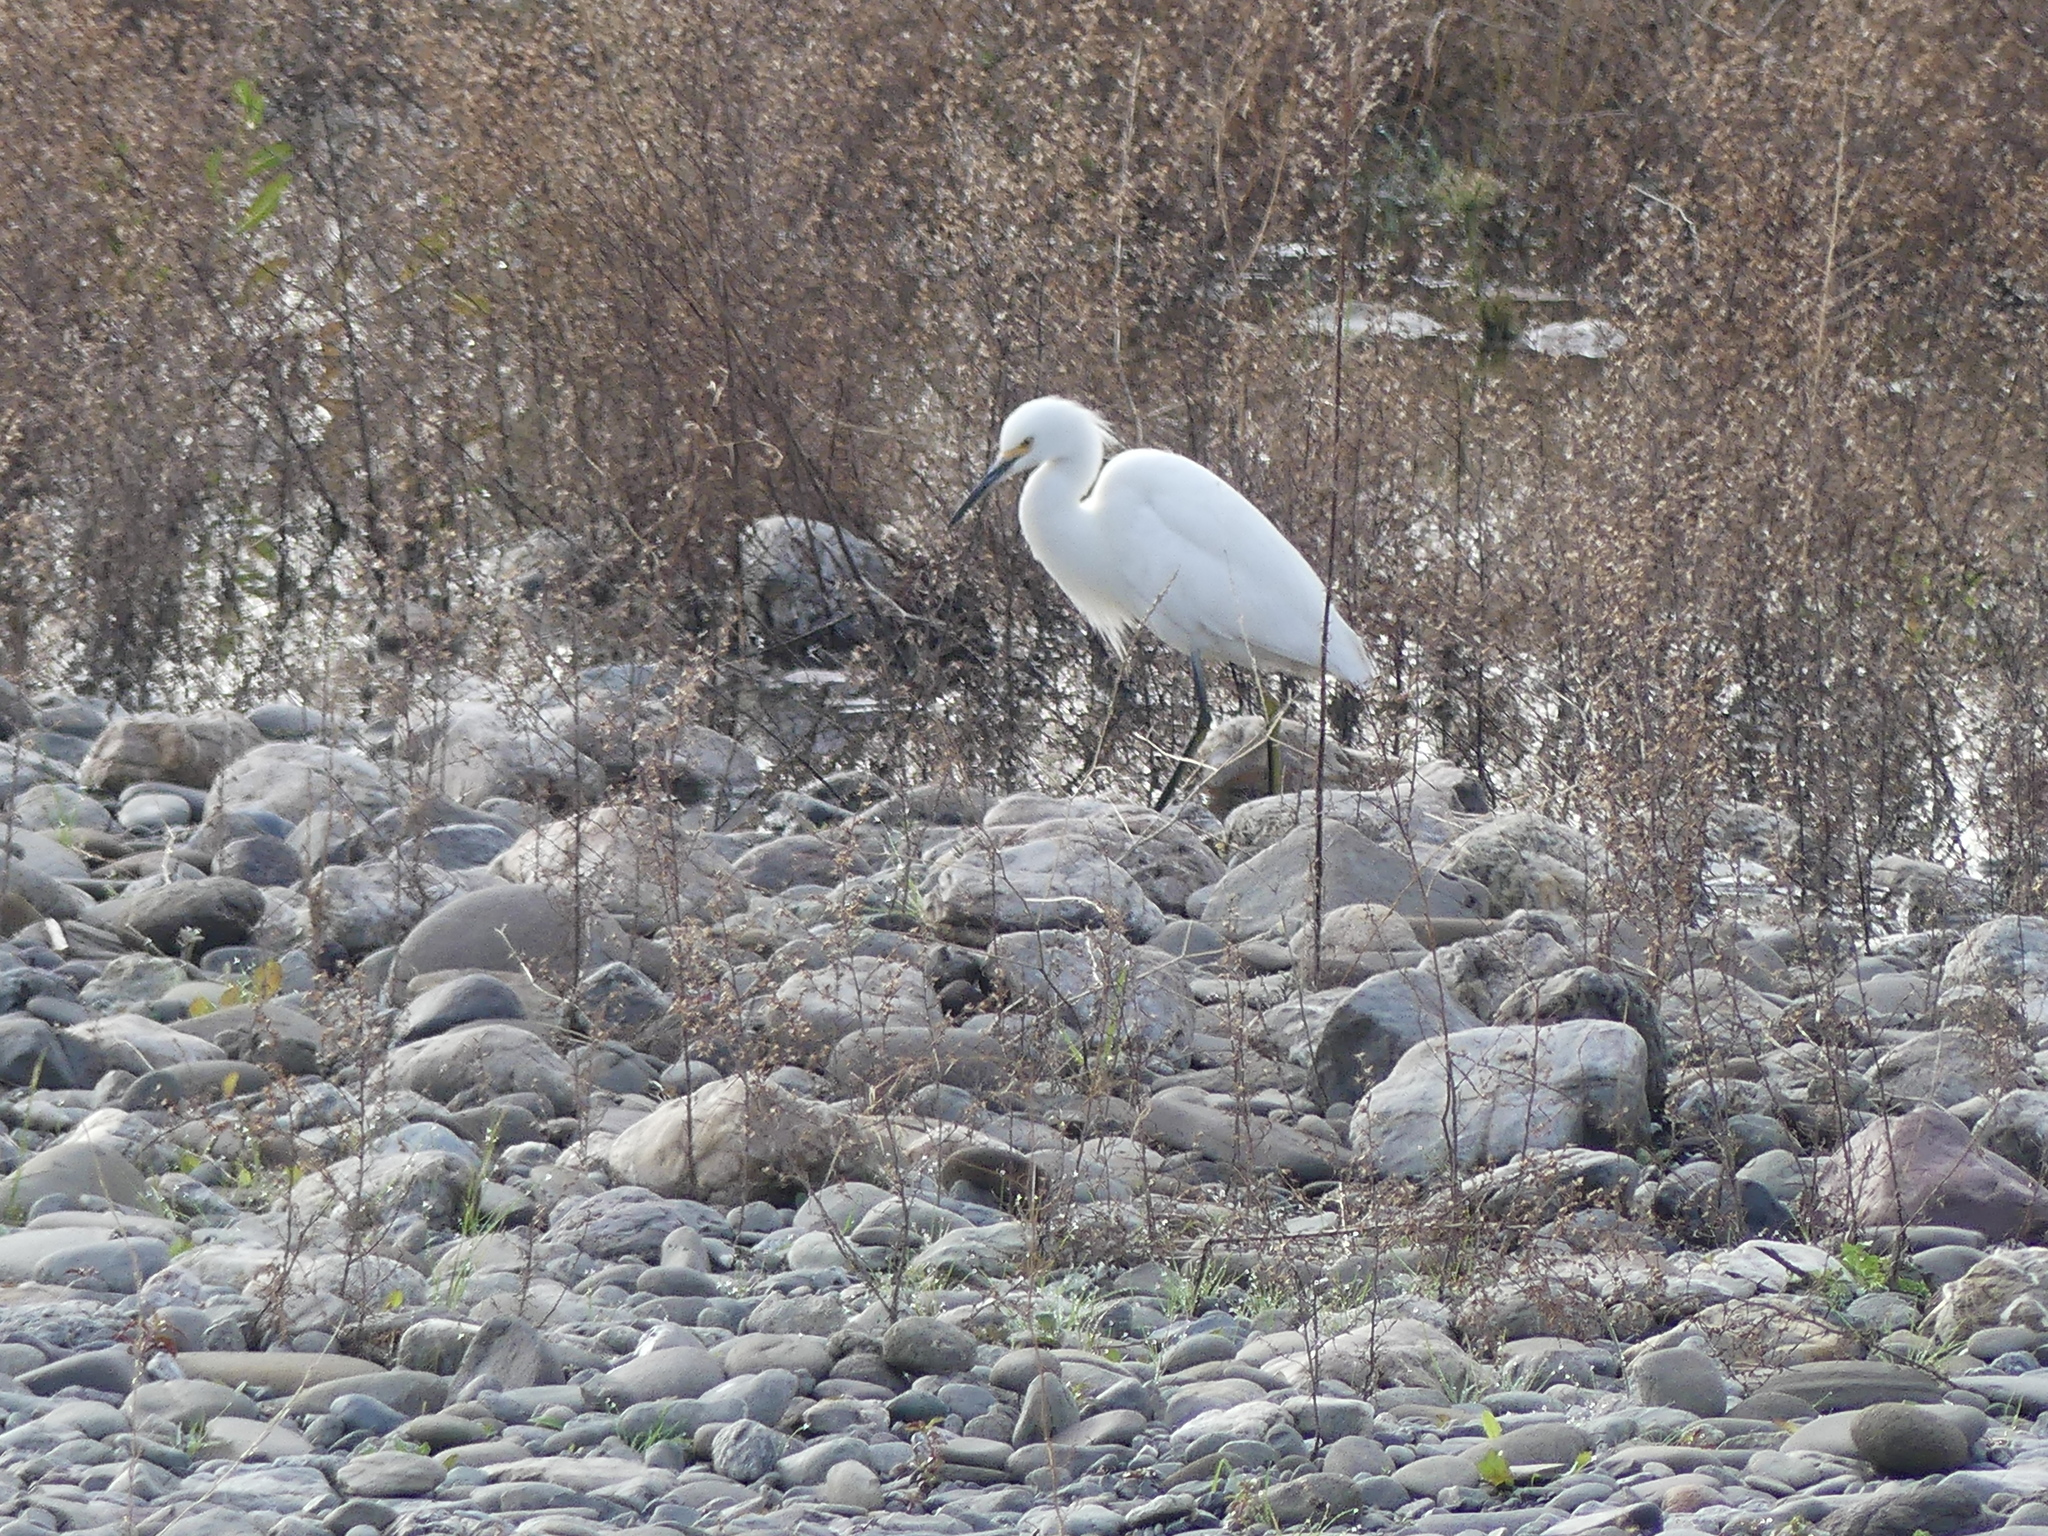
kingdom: Animalia
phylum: Chordata
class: Aves
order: Pelecaniformes
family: Ardeidae
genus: Egretta
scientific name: Egretta thula
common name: Snowy egret
